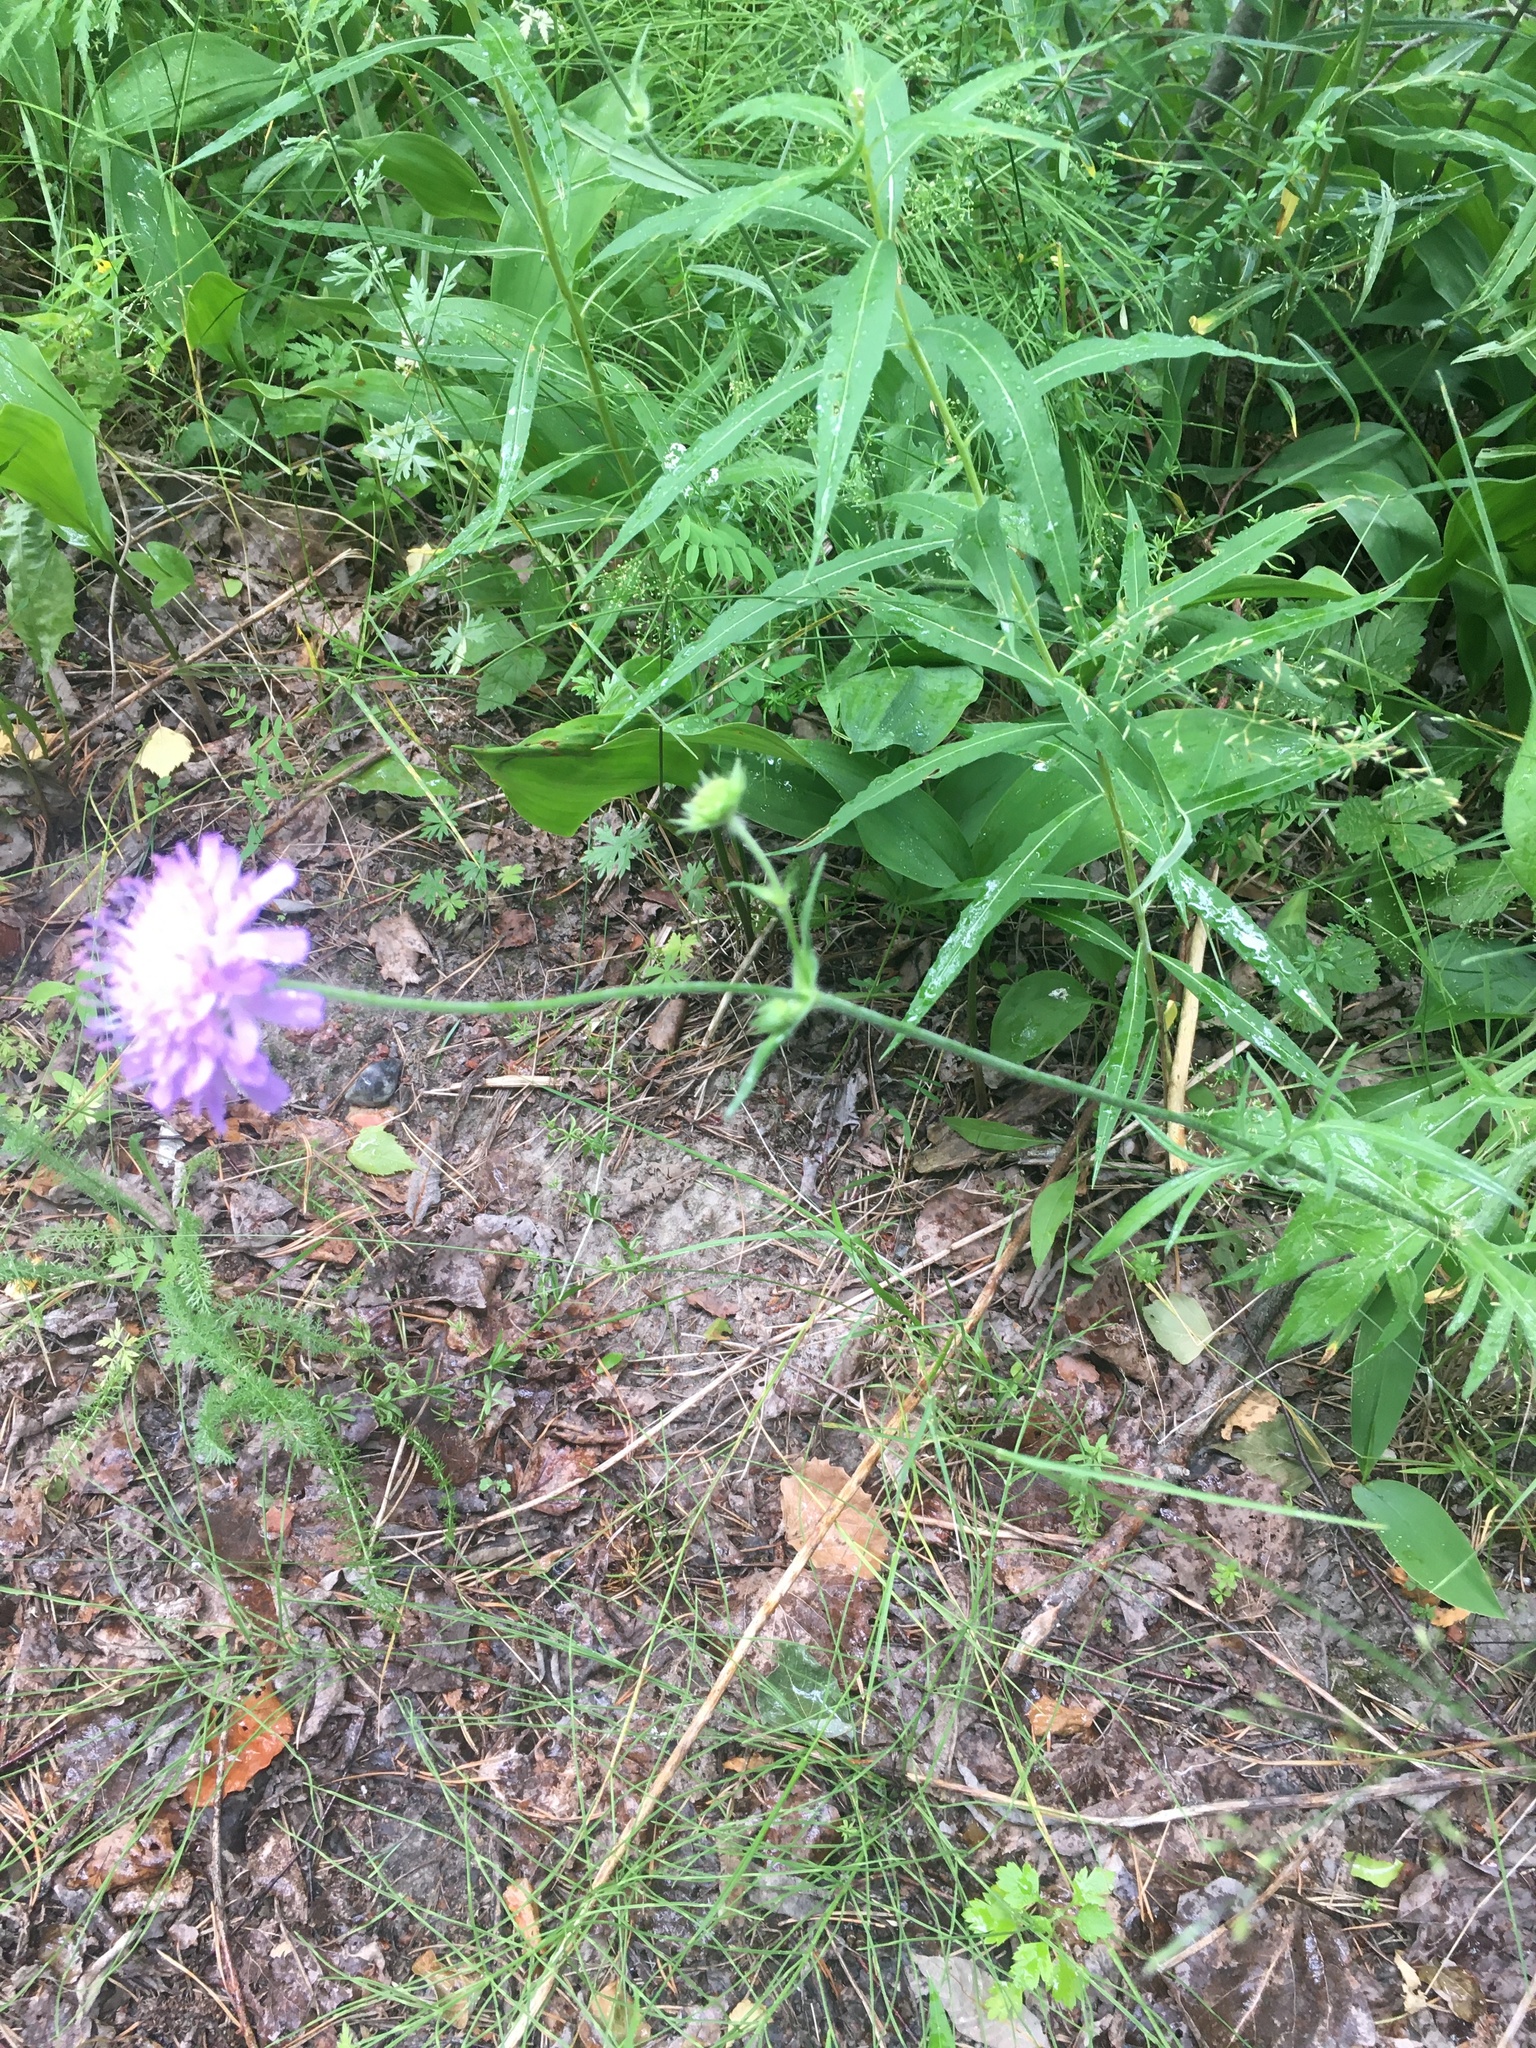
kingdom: Plantae
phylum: Tracheophyta
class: Magnoliopsida
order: Dipsacales
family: Caprifoliaceae
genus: Knautia
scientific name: Knautia arvensis
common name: Field scabiosa
